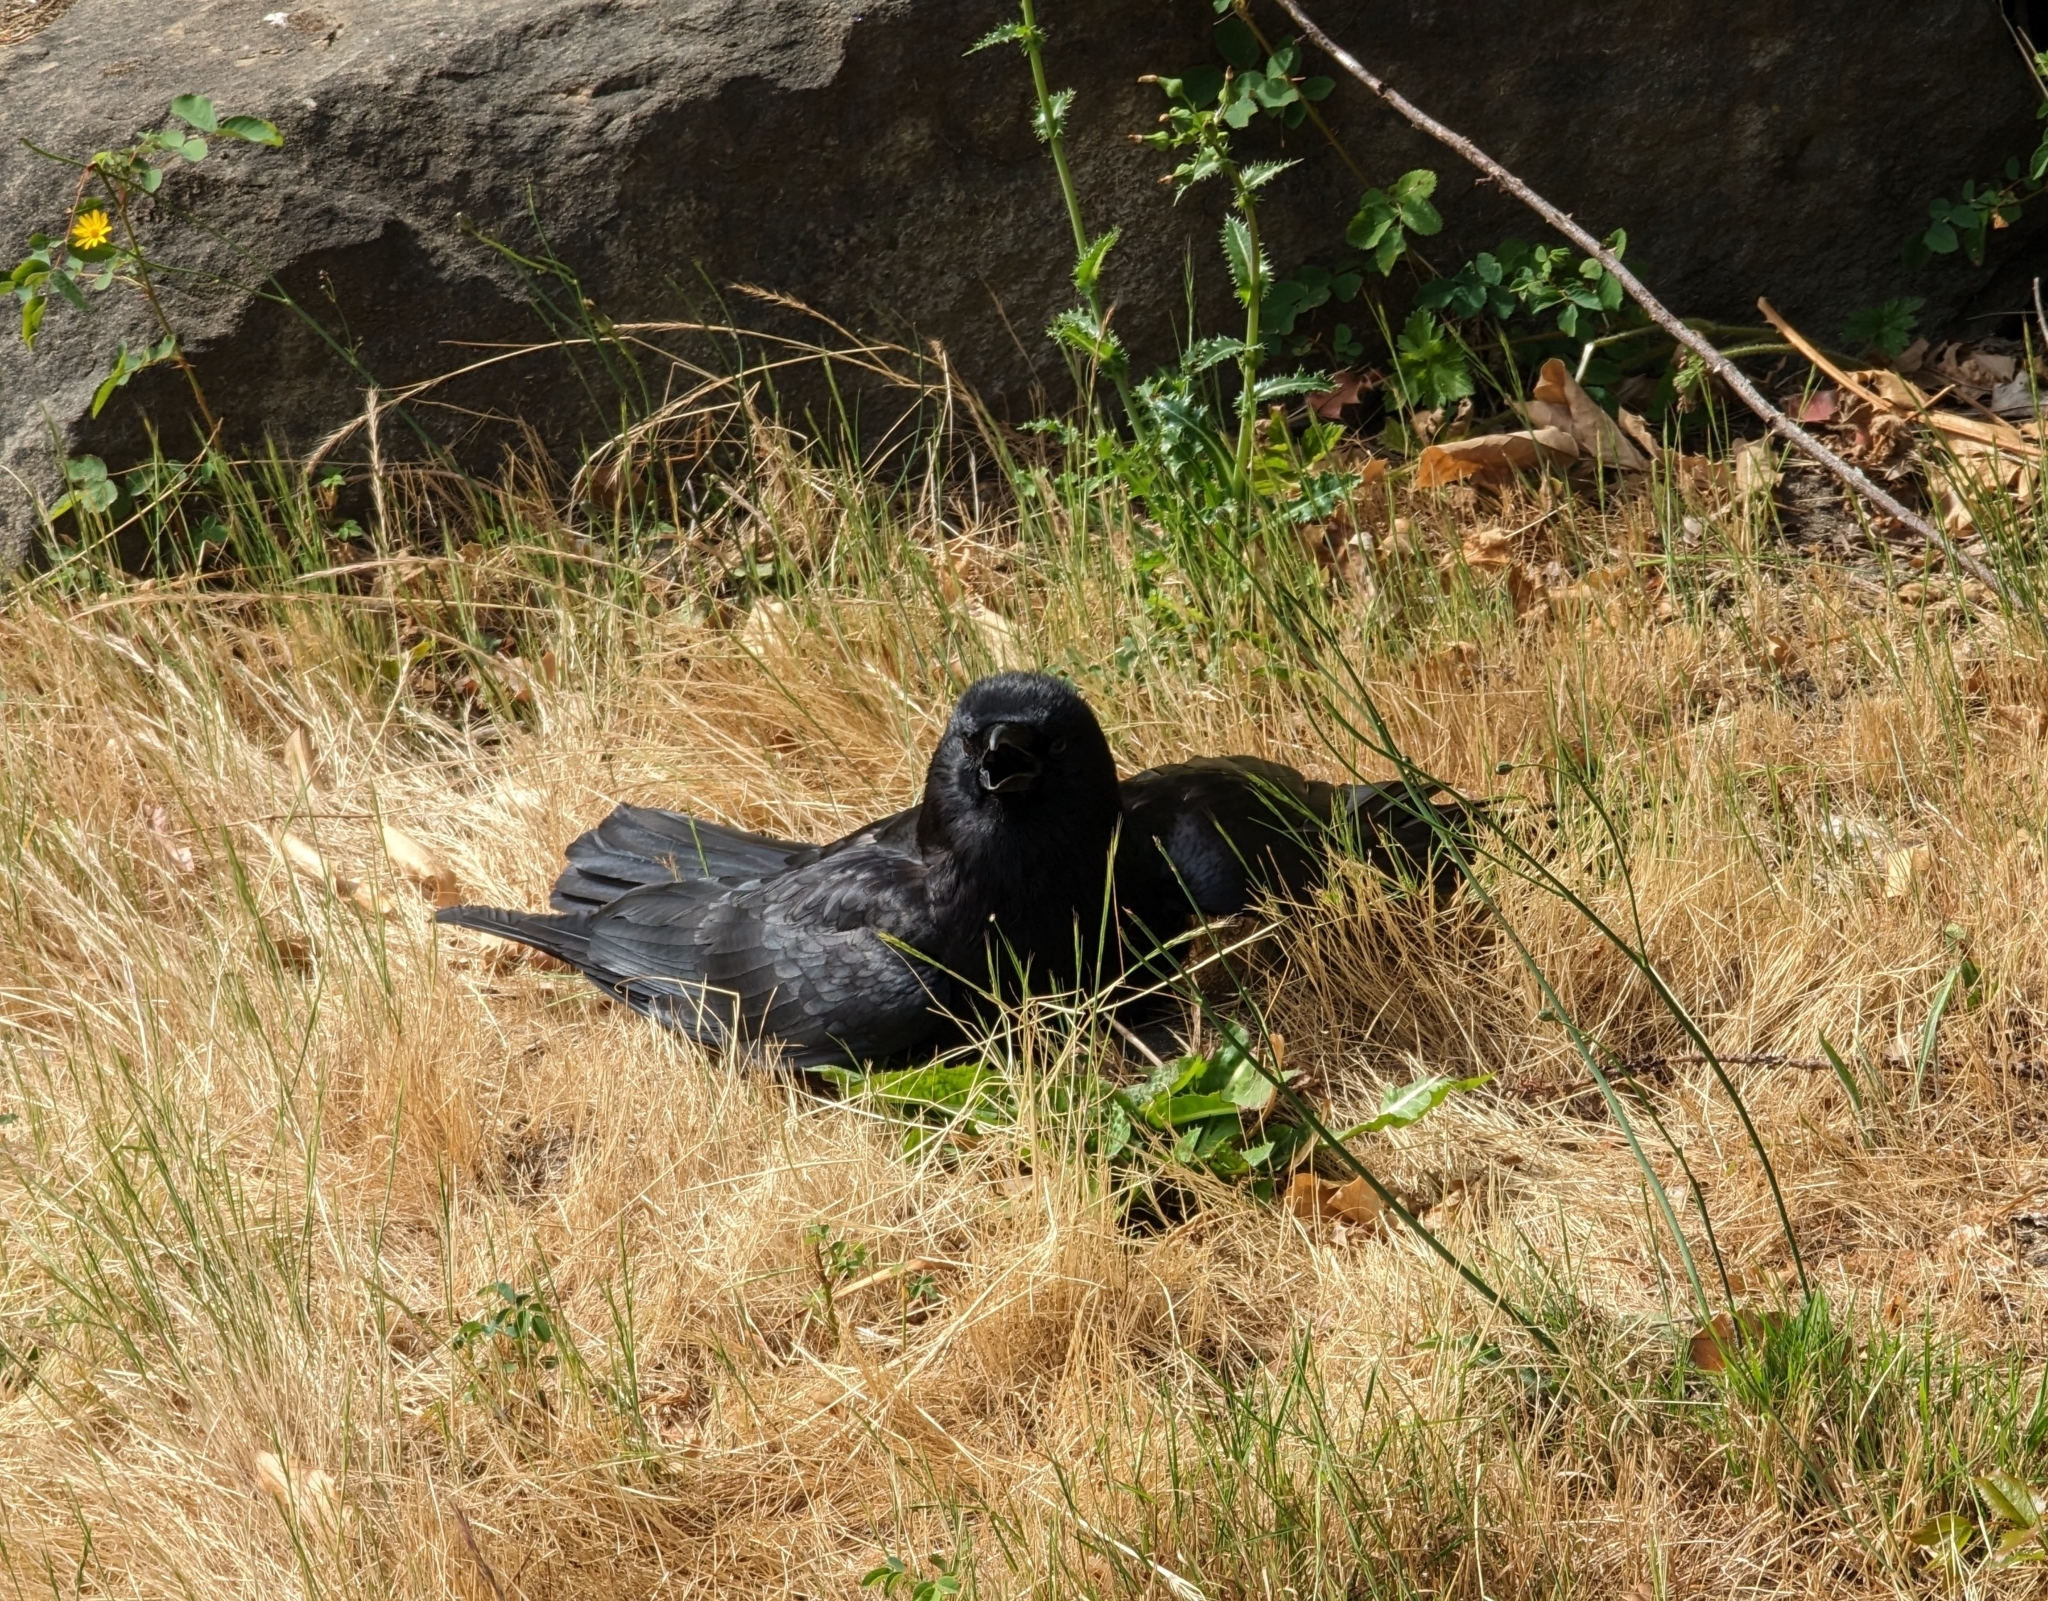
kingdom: Animalia
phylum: Chordata
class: Aves
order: Passeriformes
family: Corvidae
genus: Corvus
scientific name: Corvus brachyrhynchos
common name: American crow
